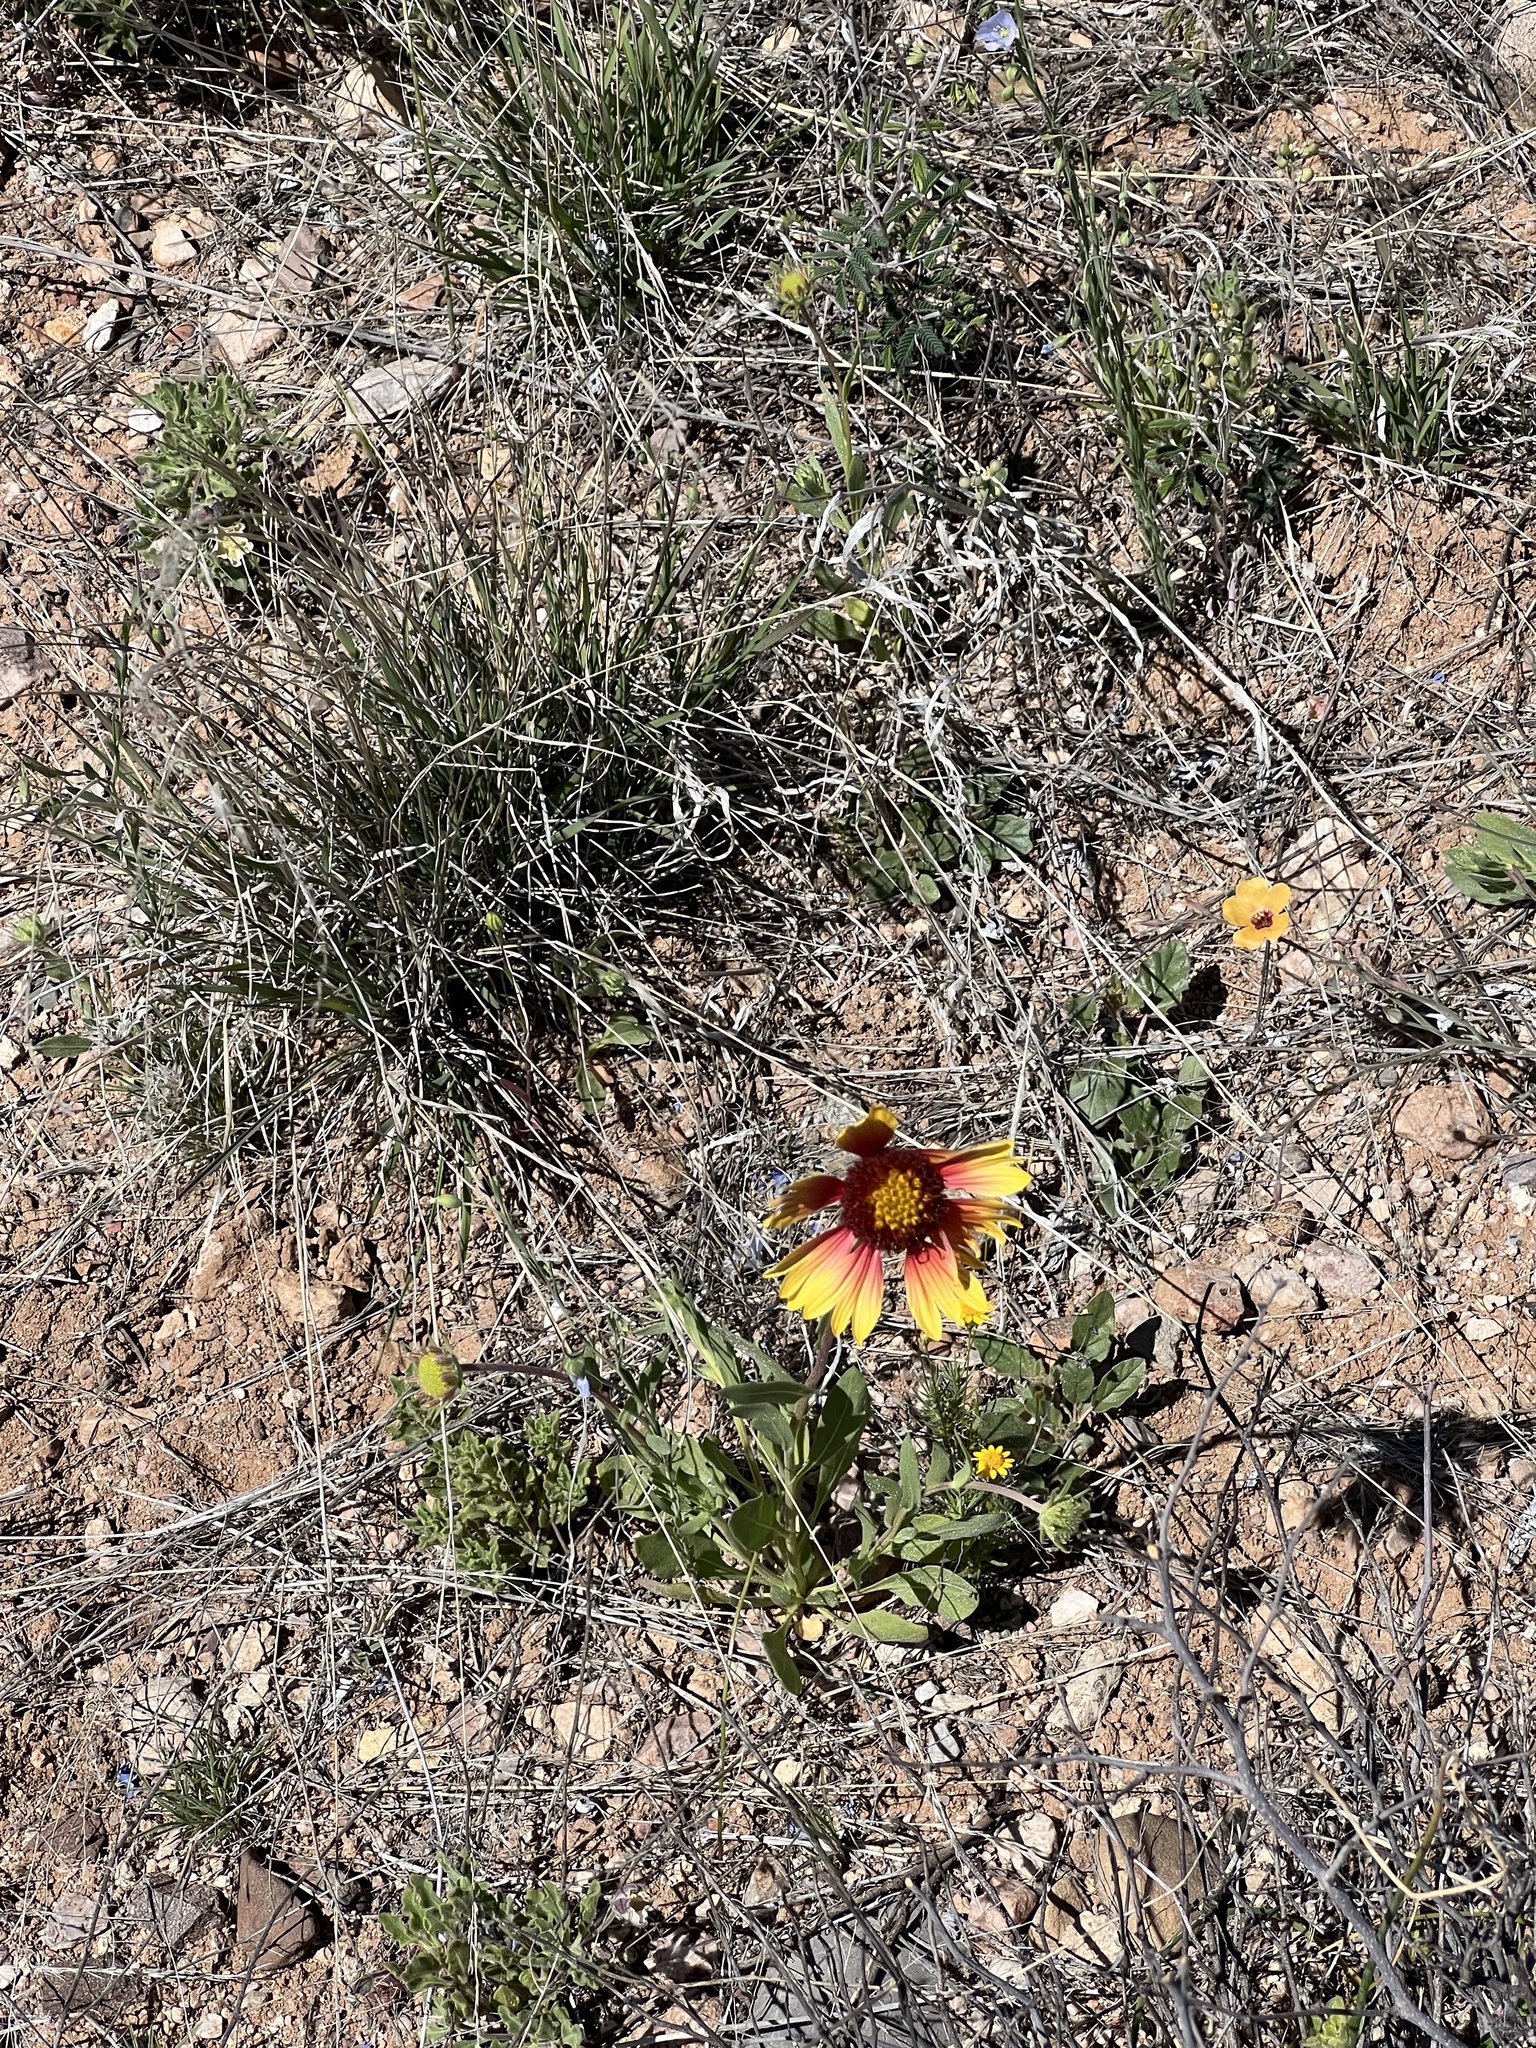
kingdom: Plantae
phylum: Tracheophyta
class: Magnoliopsida
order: Asterales
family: Asteraceae
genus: Gaillardia
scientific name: Gaillardia pulchella
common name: Firewheel
